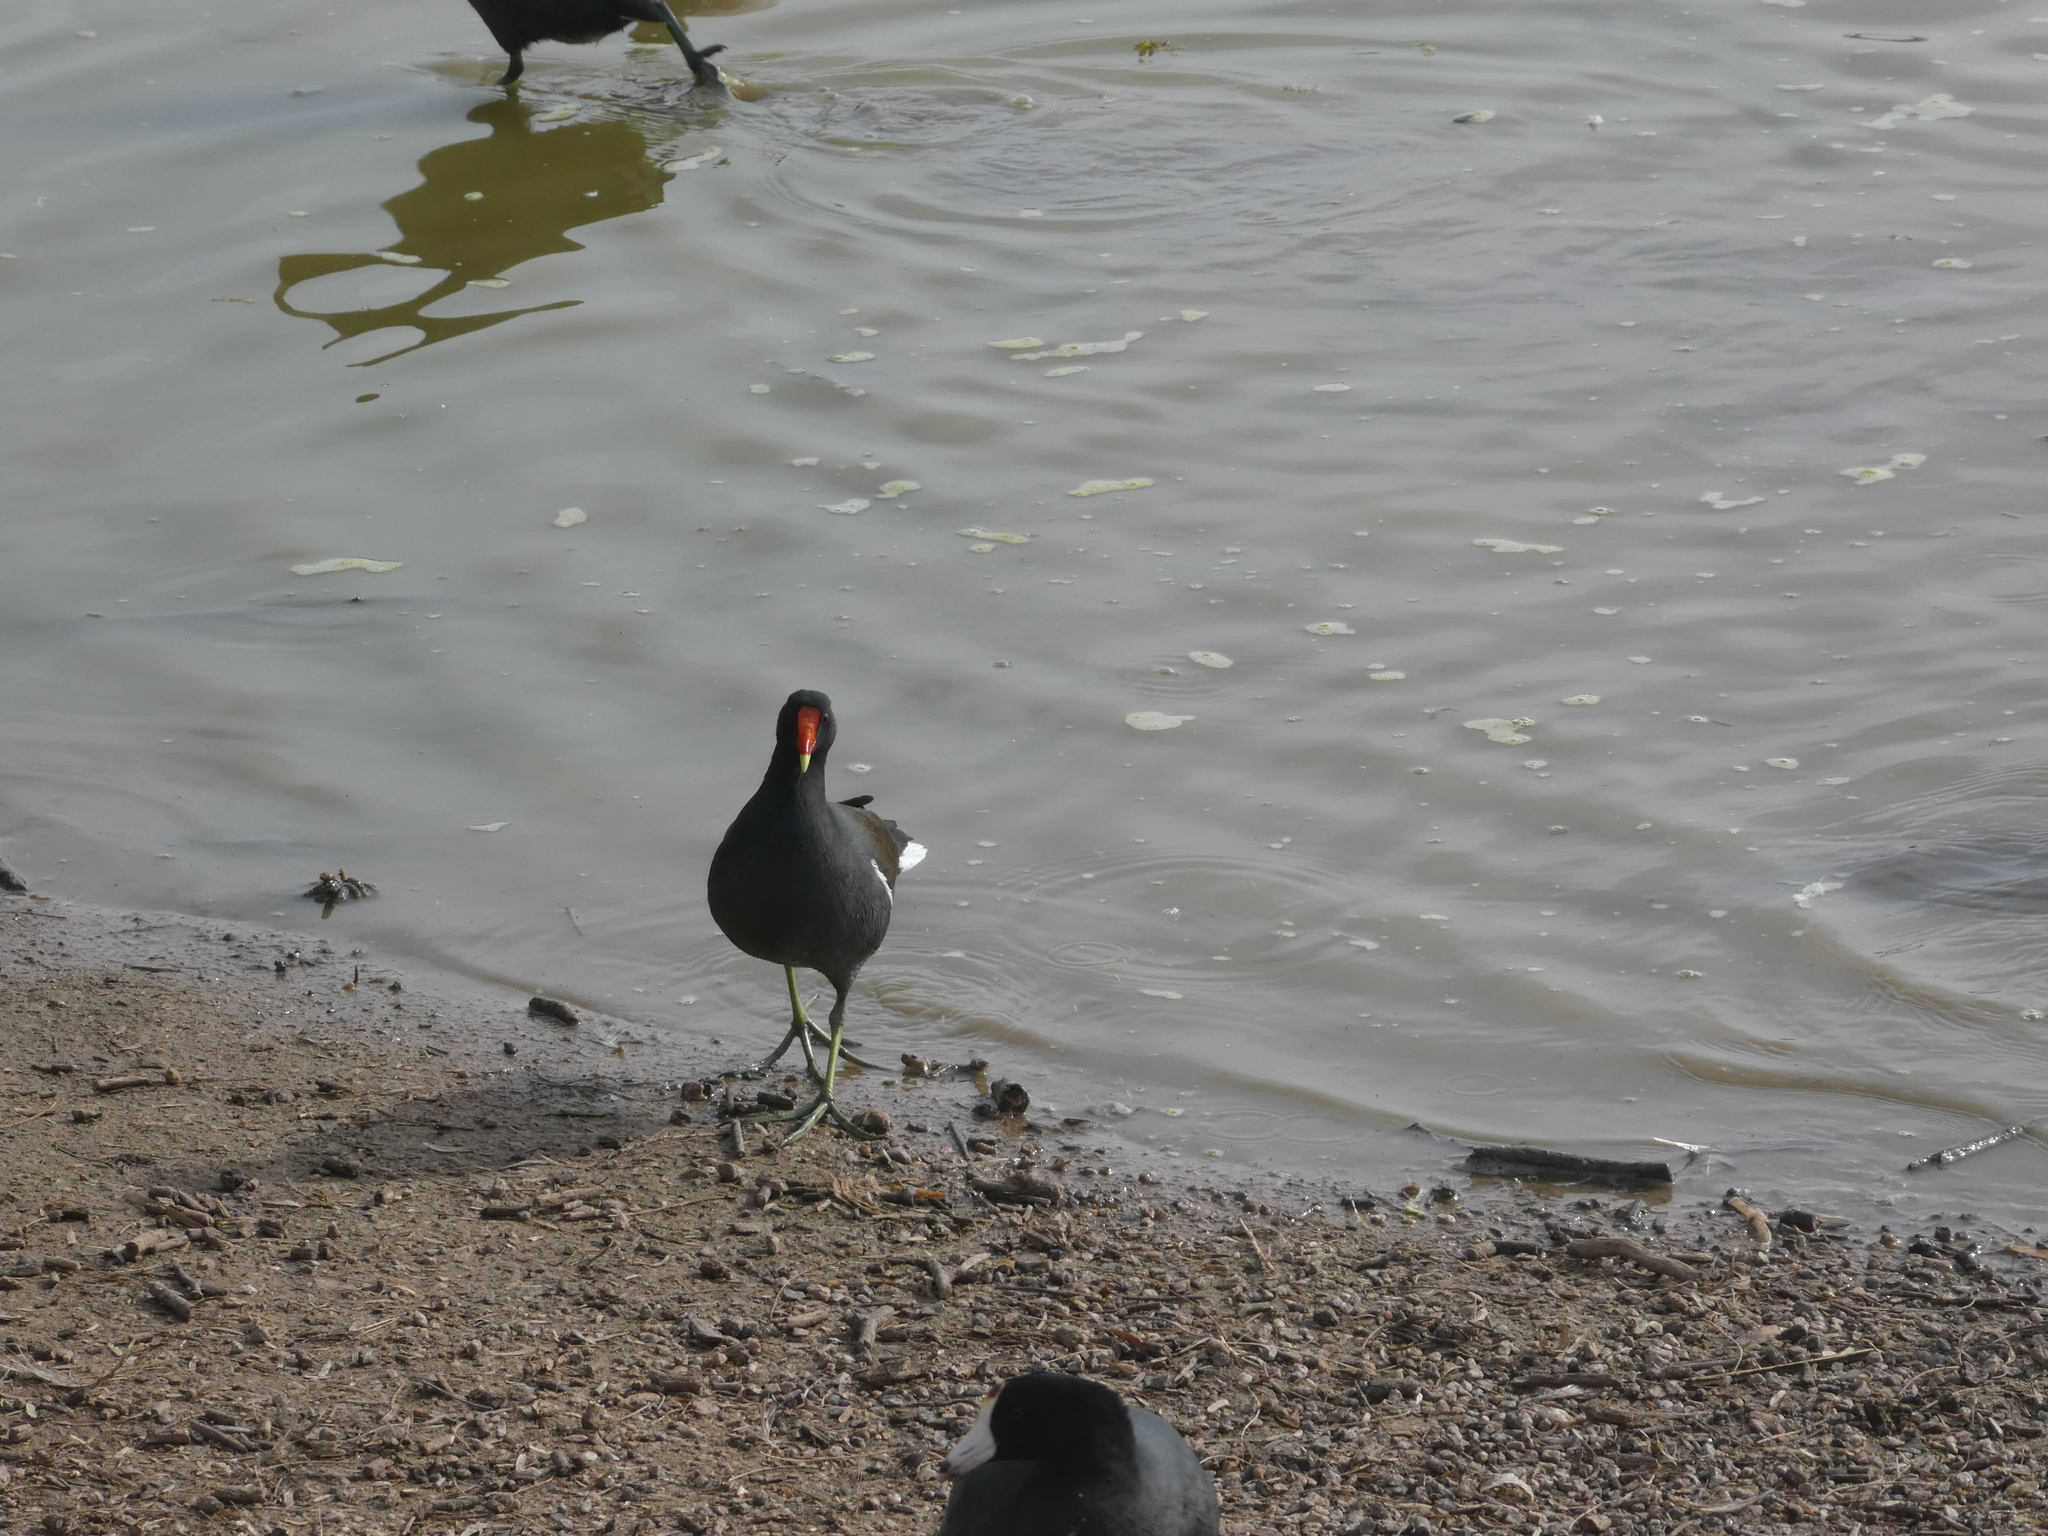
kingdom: Animalia
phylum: Chordata
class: Aves
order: Gruiformes
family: Rallidae
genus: Gallinula
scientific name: Gallinula chloropus
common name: Common moorhen
